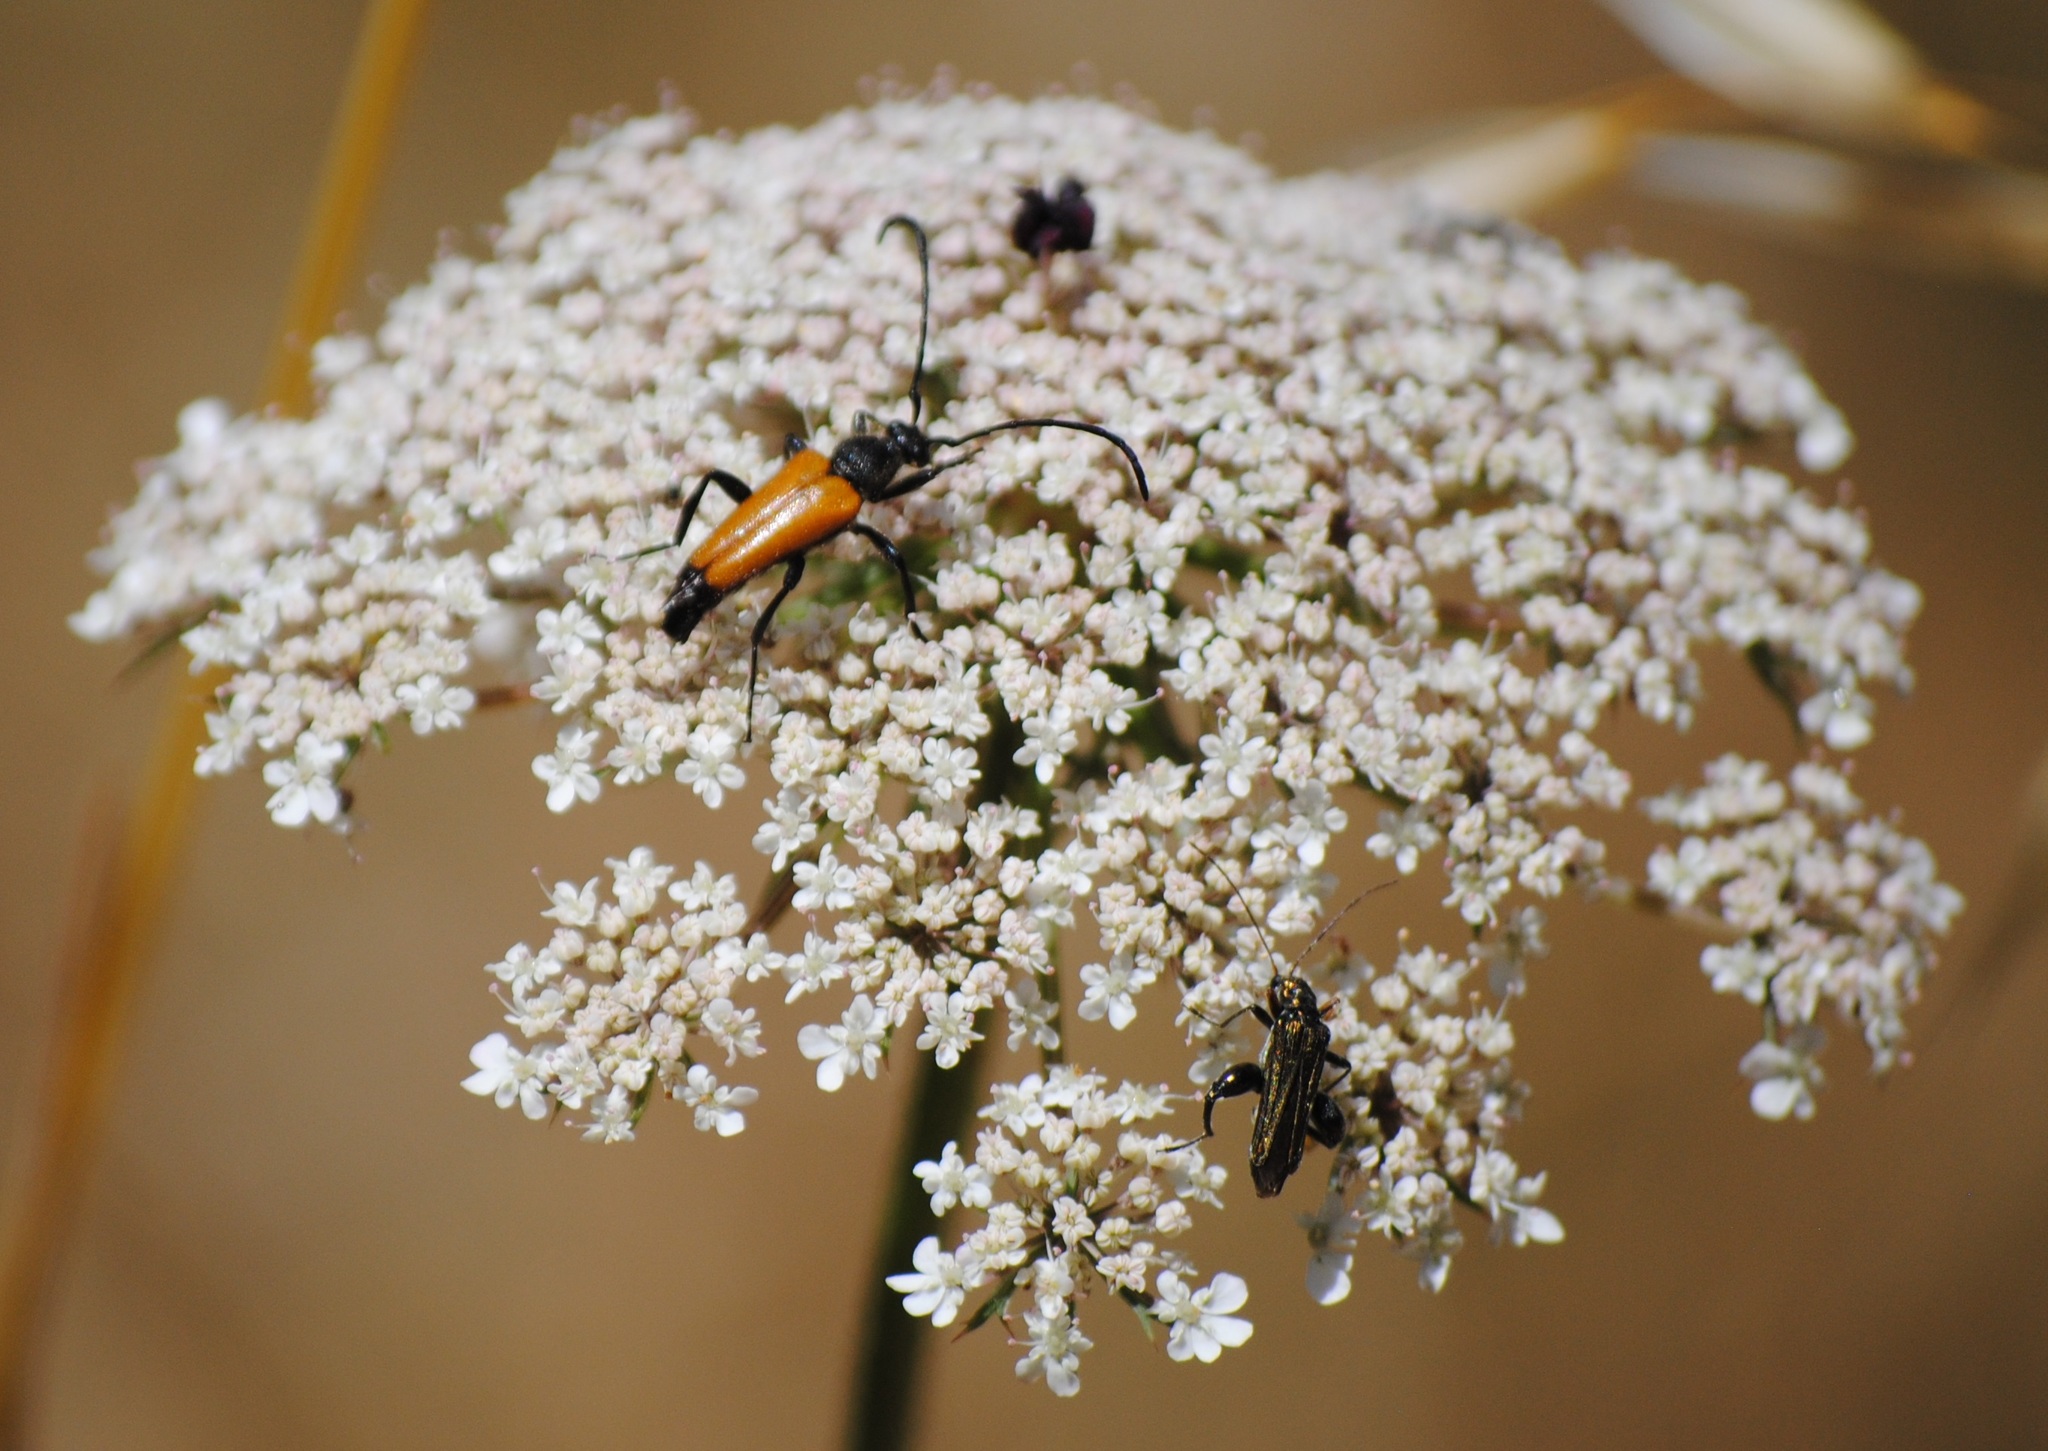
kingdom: Animalia
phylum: Arthropoda
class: Insecta
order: Coleoptera
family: Cerambycidae
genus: Paracorymbia
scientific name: Paracorymbia fulva
